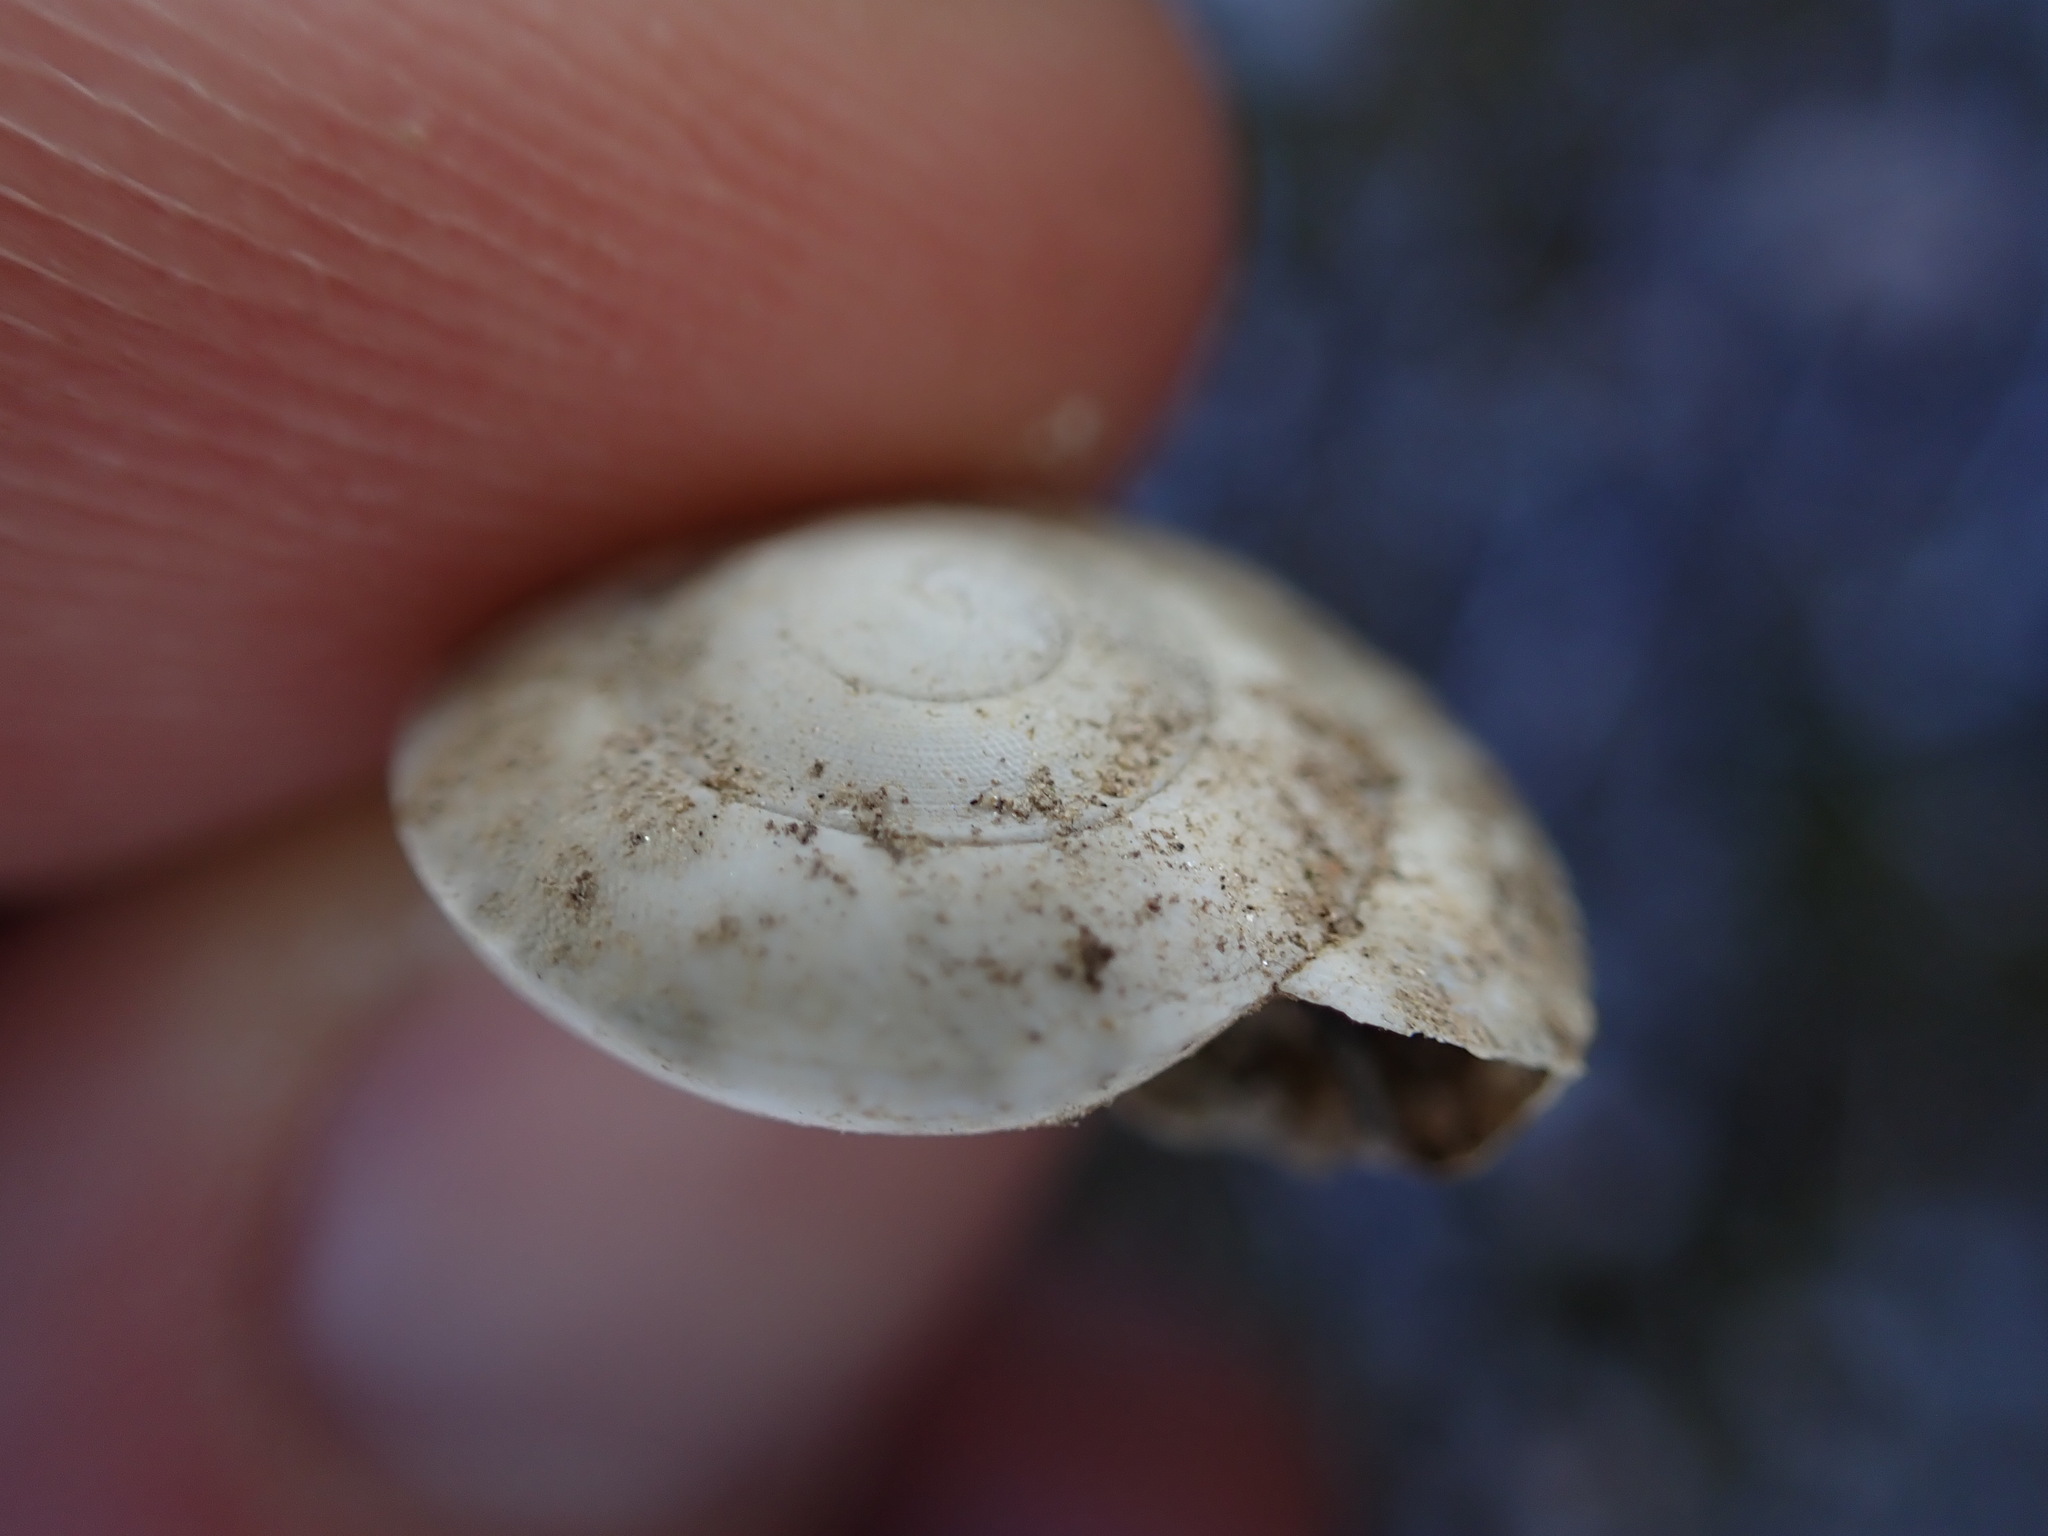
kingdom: Animalia
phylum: Mollusca
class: Gastropoda
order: Stylommatophora
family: Zonitidae
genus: Zonites
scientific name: Zonites algirus
